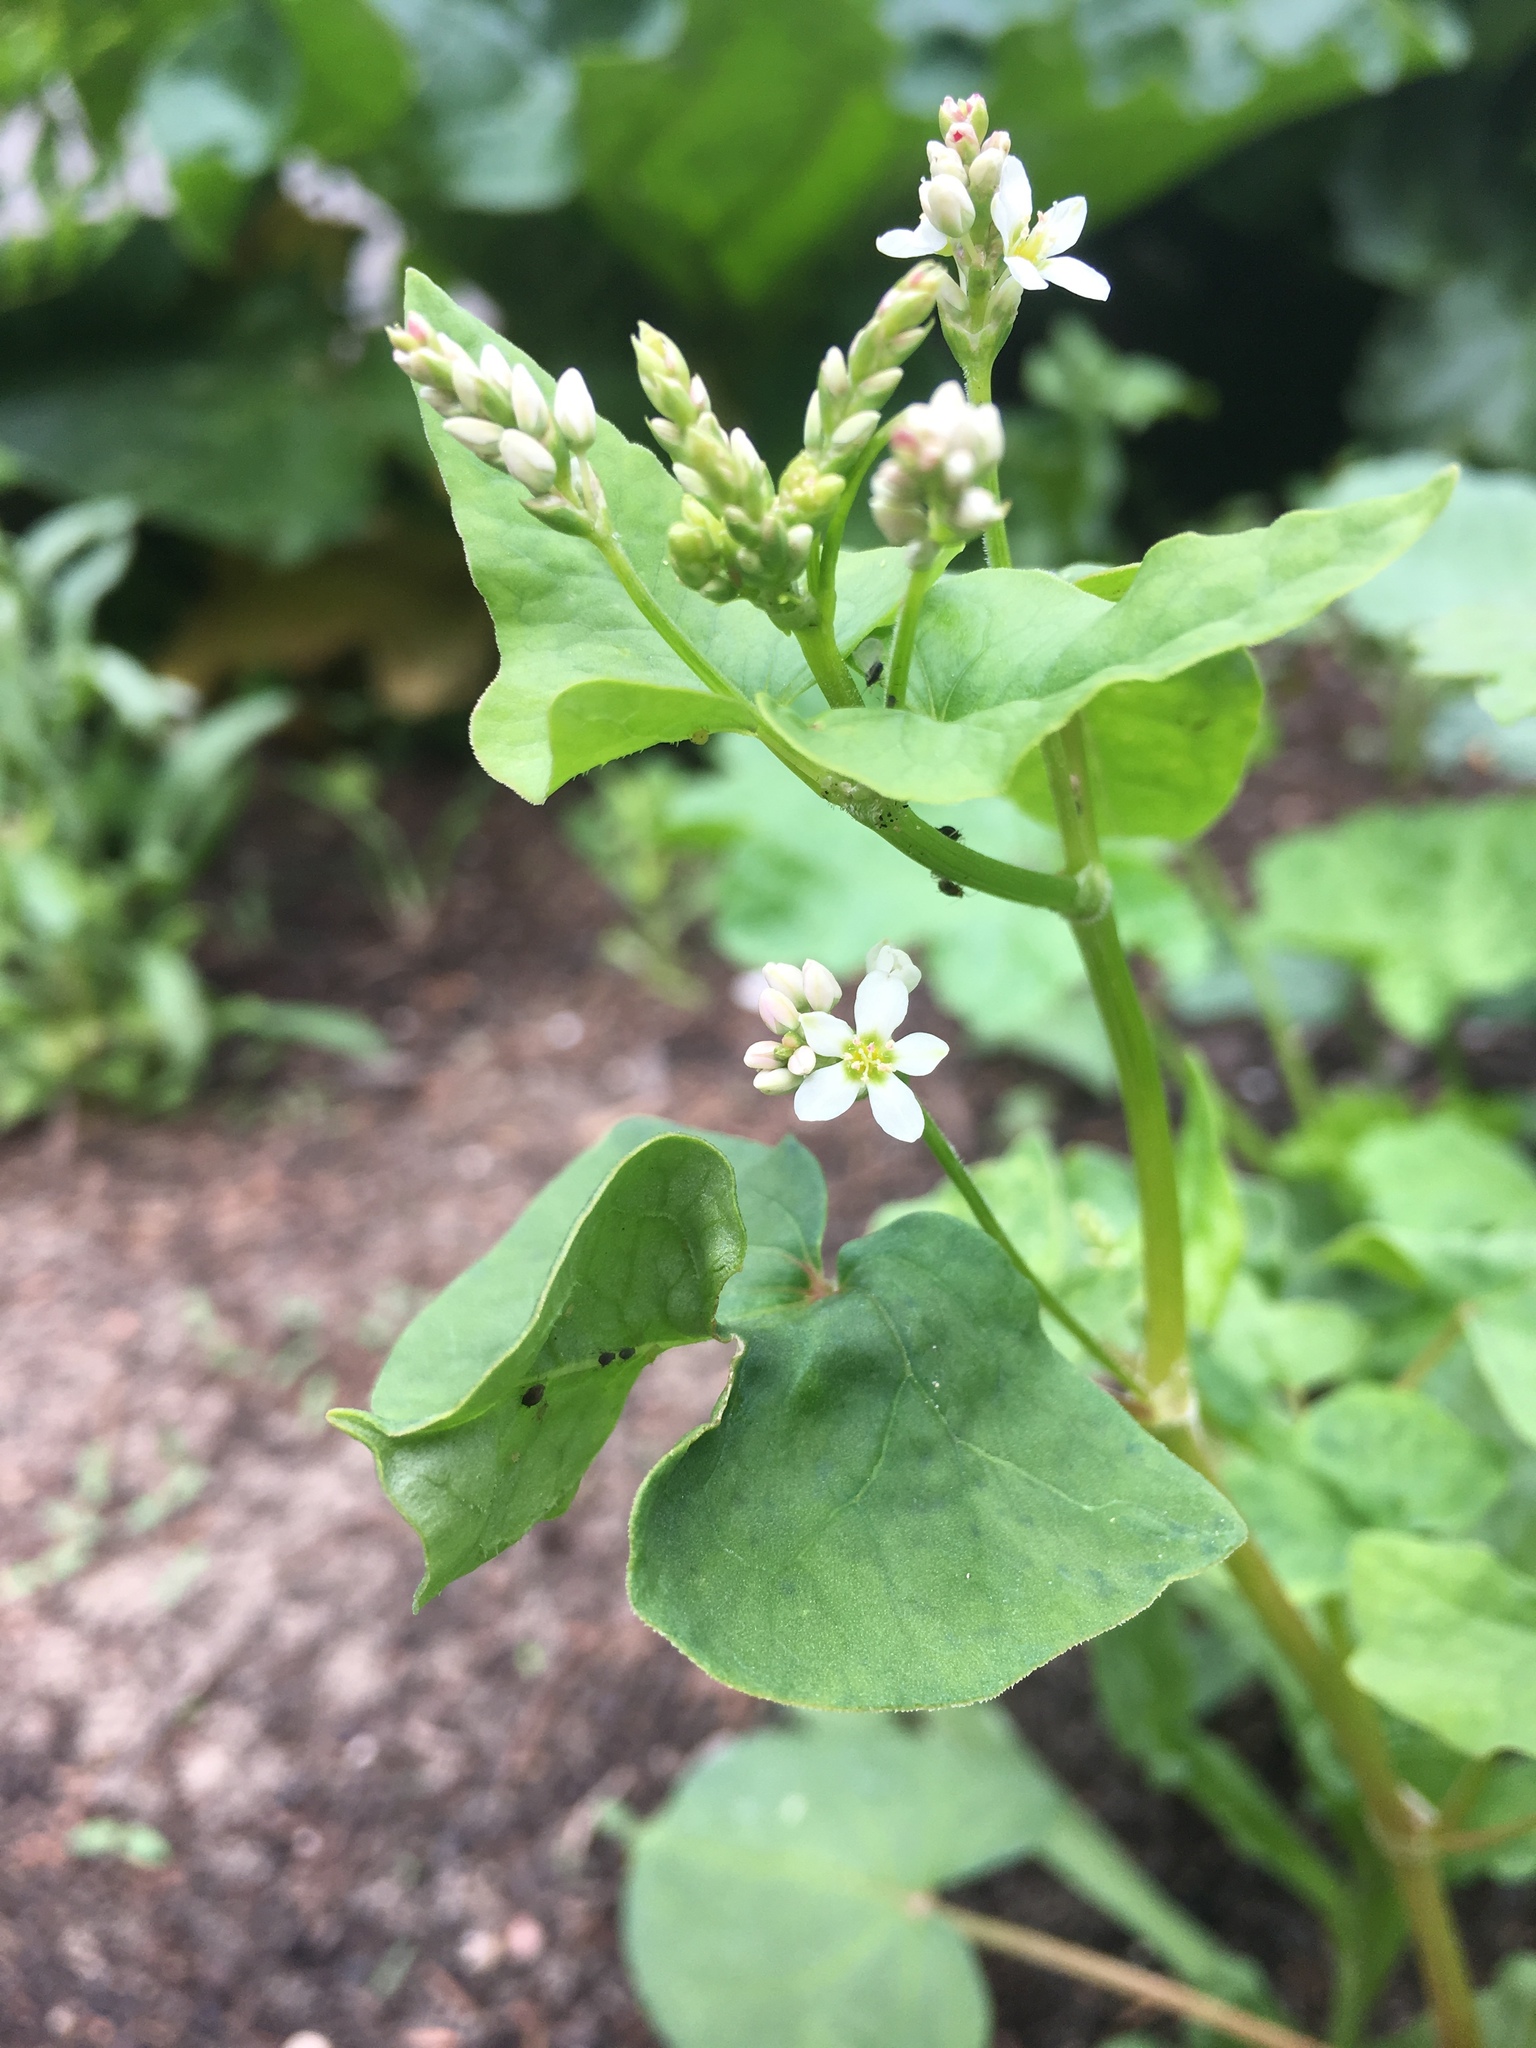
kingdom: Plantae
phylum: Tracheophyta
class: Magnoliopsida
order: Caryophyllales
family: Polygonaceae
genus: Fagopyrum
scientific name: Fagopyrum esculentum
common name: Buckwheat
